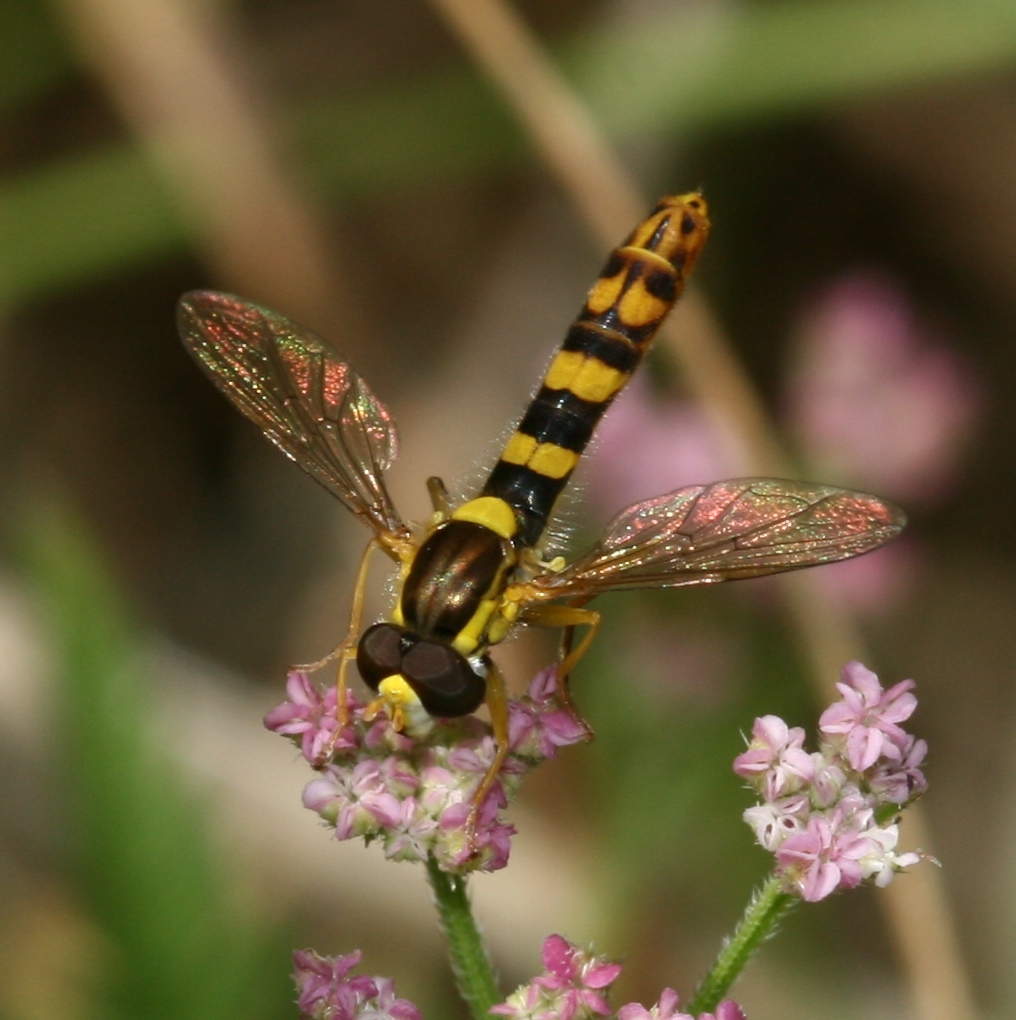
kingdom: Animalia
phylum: Arthropoda
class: Insecta
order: Diptera
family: Syrphidae
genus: Sphaerophoria
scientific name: Sphaerophoria scripta
